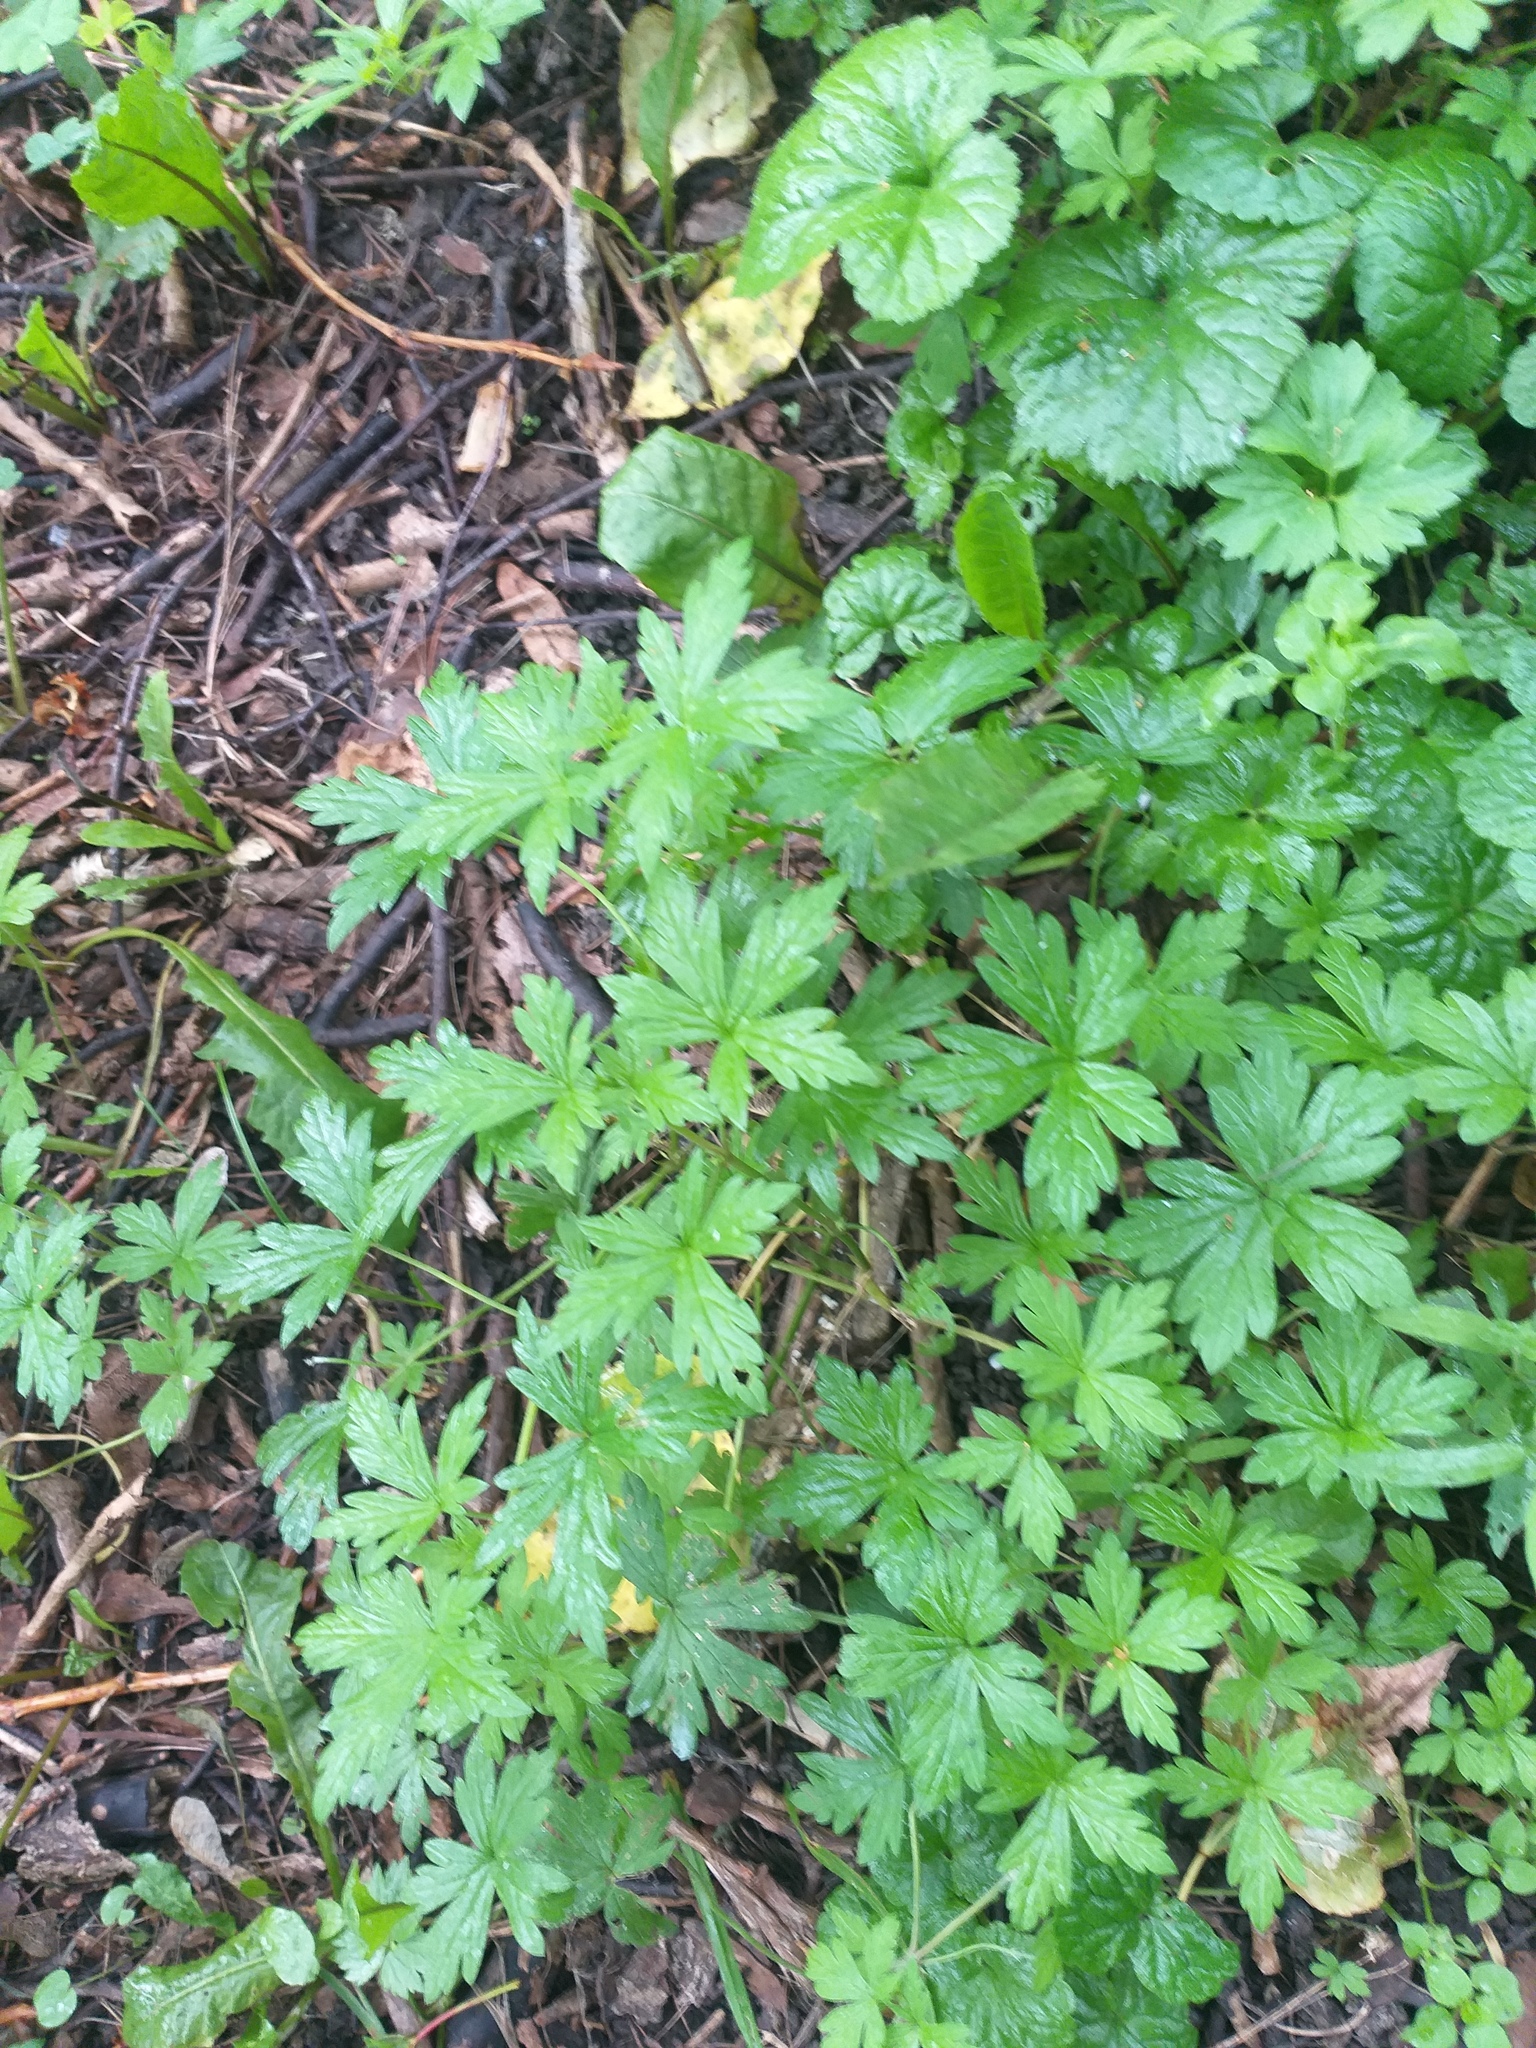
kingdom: Plantae
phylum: Tracheophyta
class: Magnoliopsida
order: Geraniales
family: Geraniaceae
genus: Geranium
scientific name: Geranium sibiricum
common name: Siberian crane's-bill
